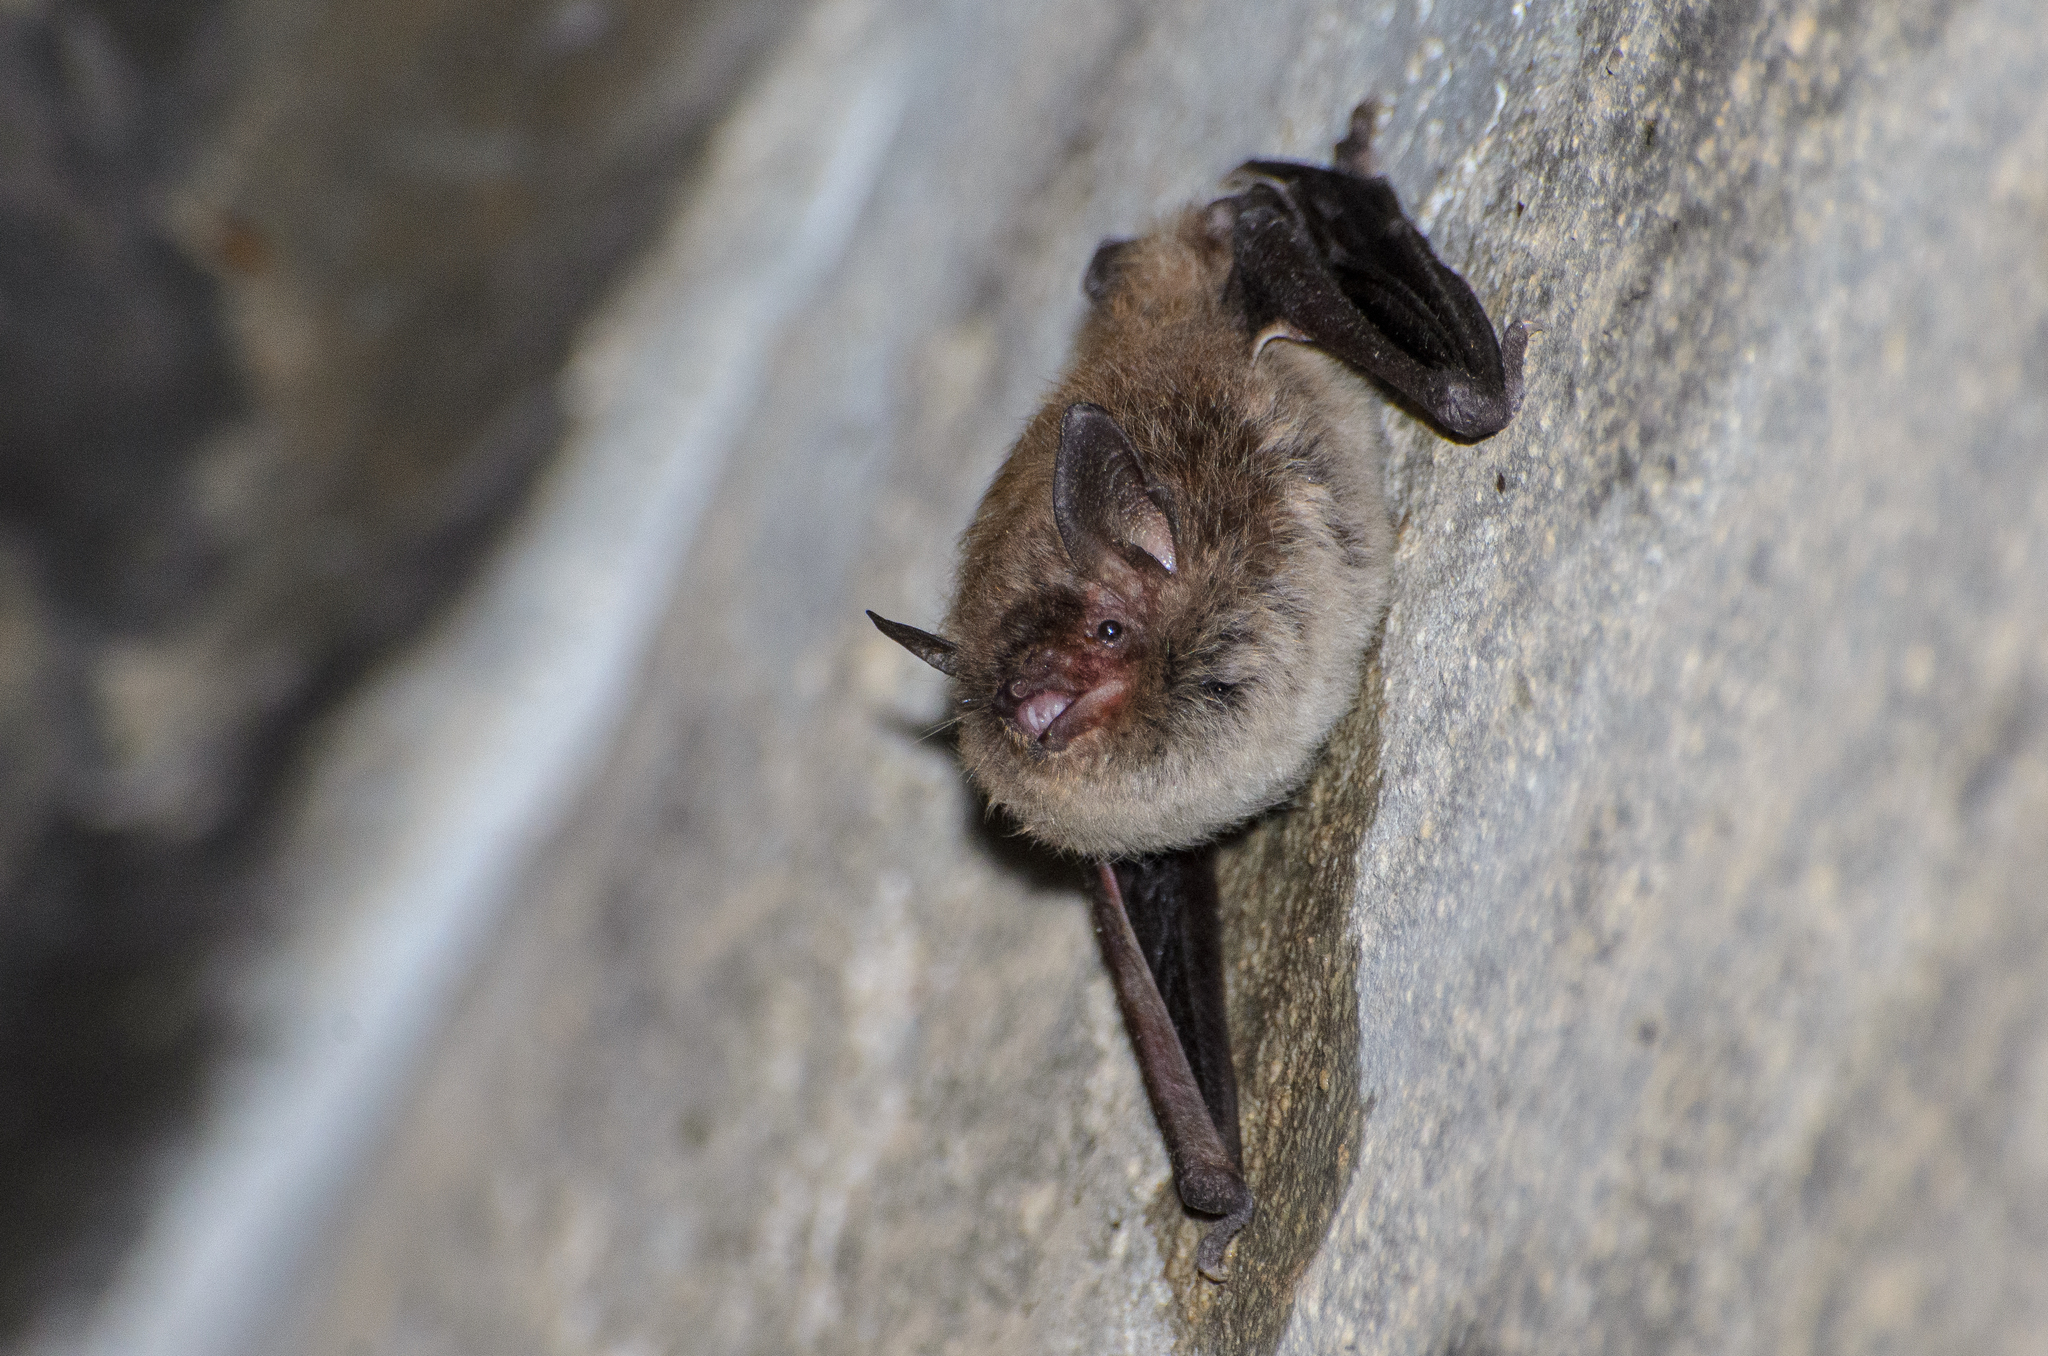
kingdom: Animalia
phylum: Chordata
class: Mammalia
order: Chiroptera
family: Vespertilionidae
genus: Myotis
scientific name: Myotis albescens
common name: Silver-tipped myotis
